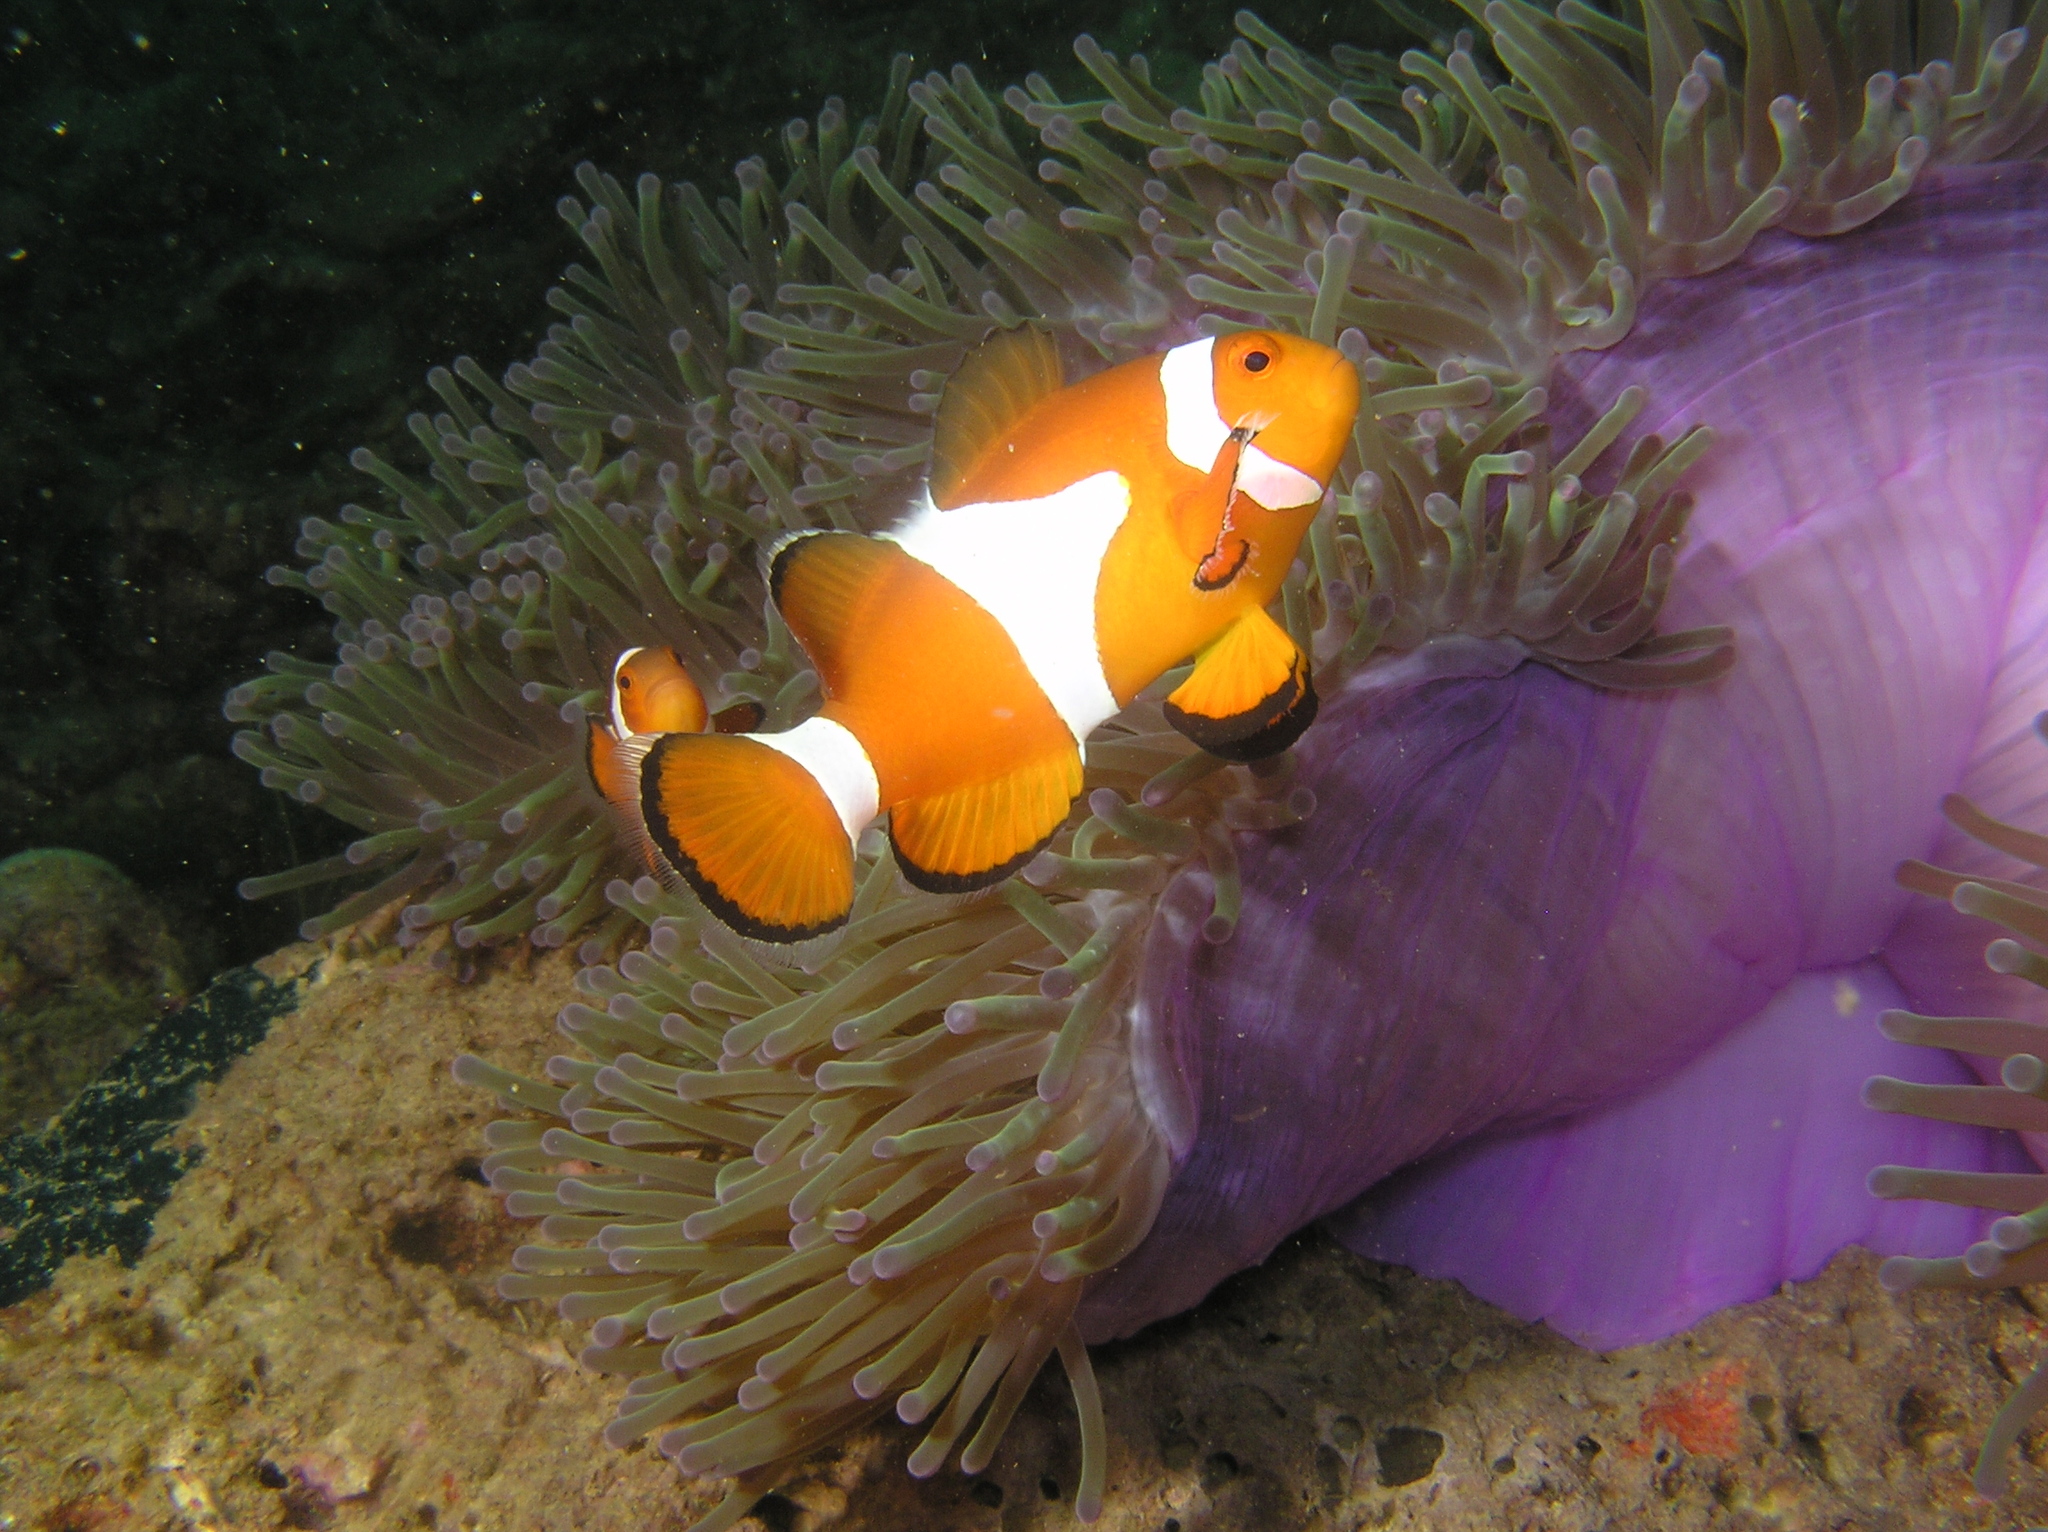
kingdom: Animalia
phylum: Chordata
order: Perciformes
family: Pomacentridae
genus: Amphiprion
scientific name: Amphiprion ocellaris
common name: Clown anemonefish
